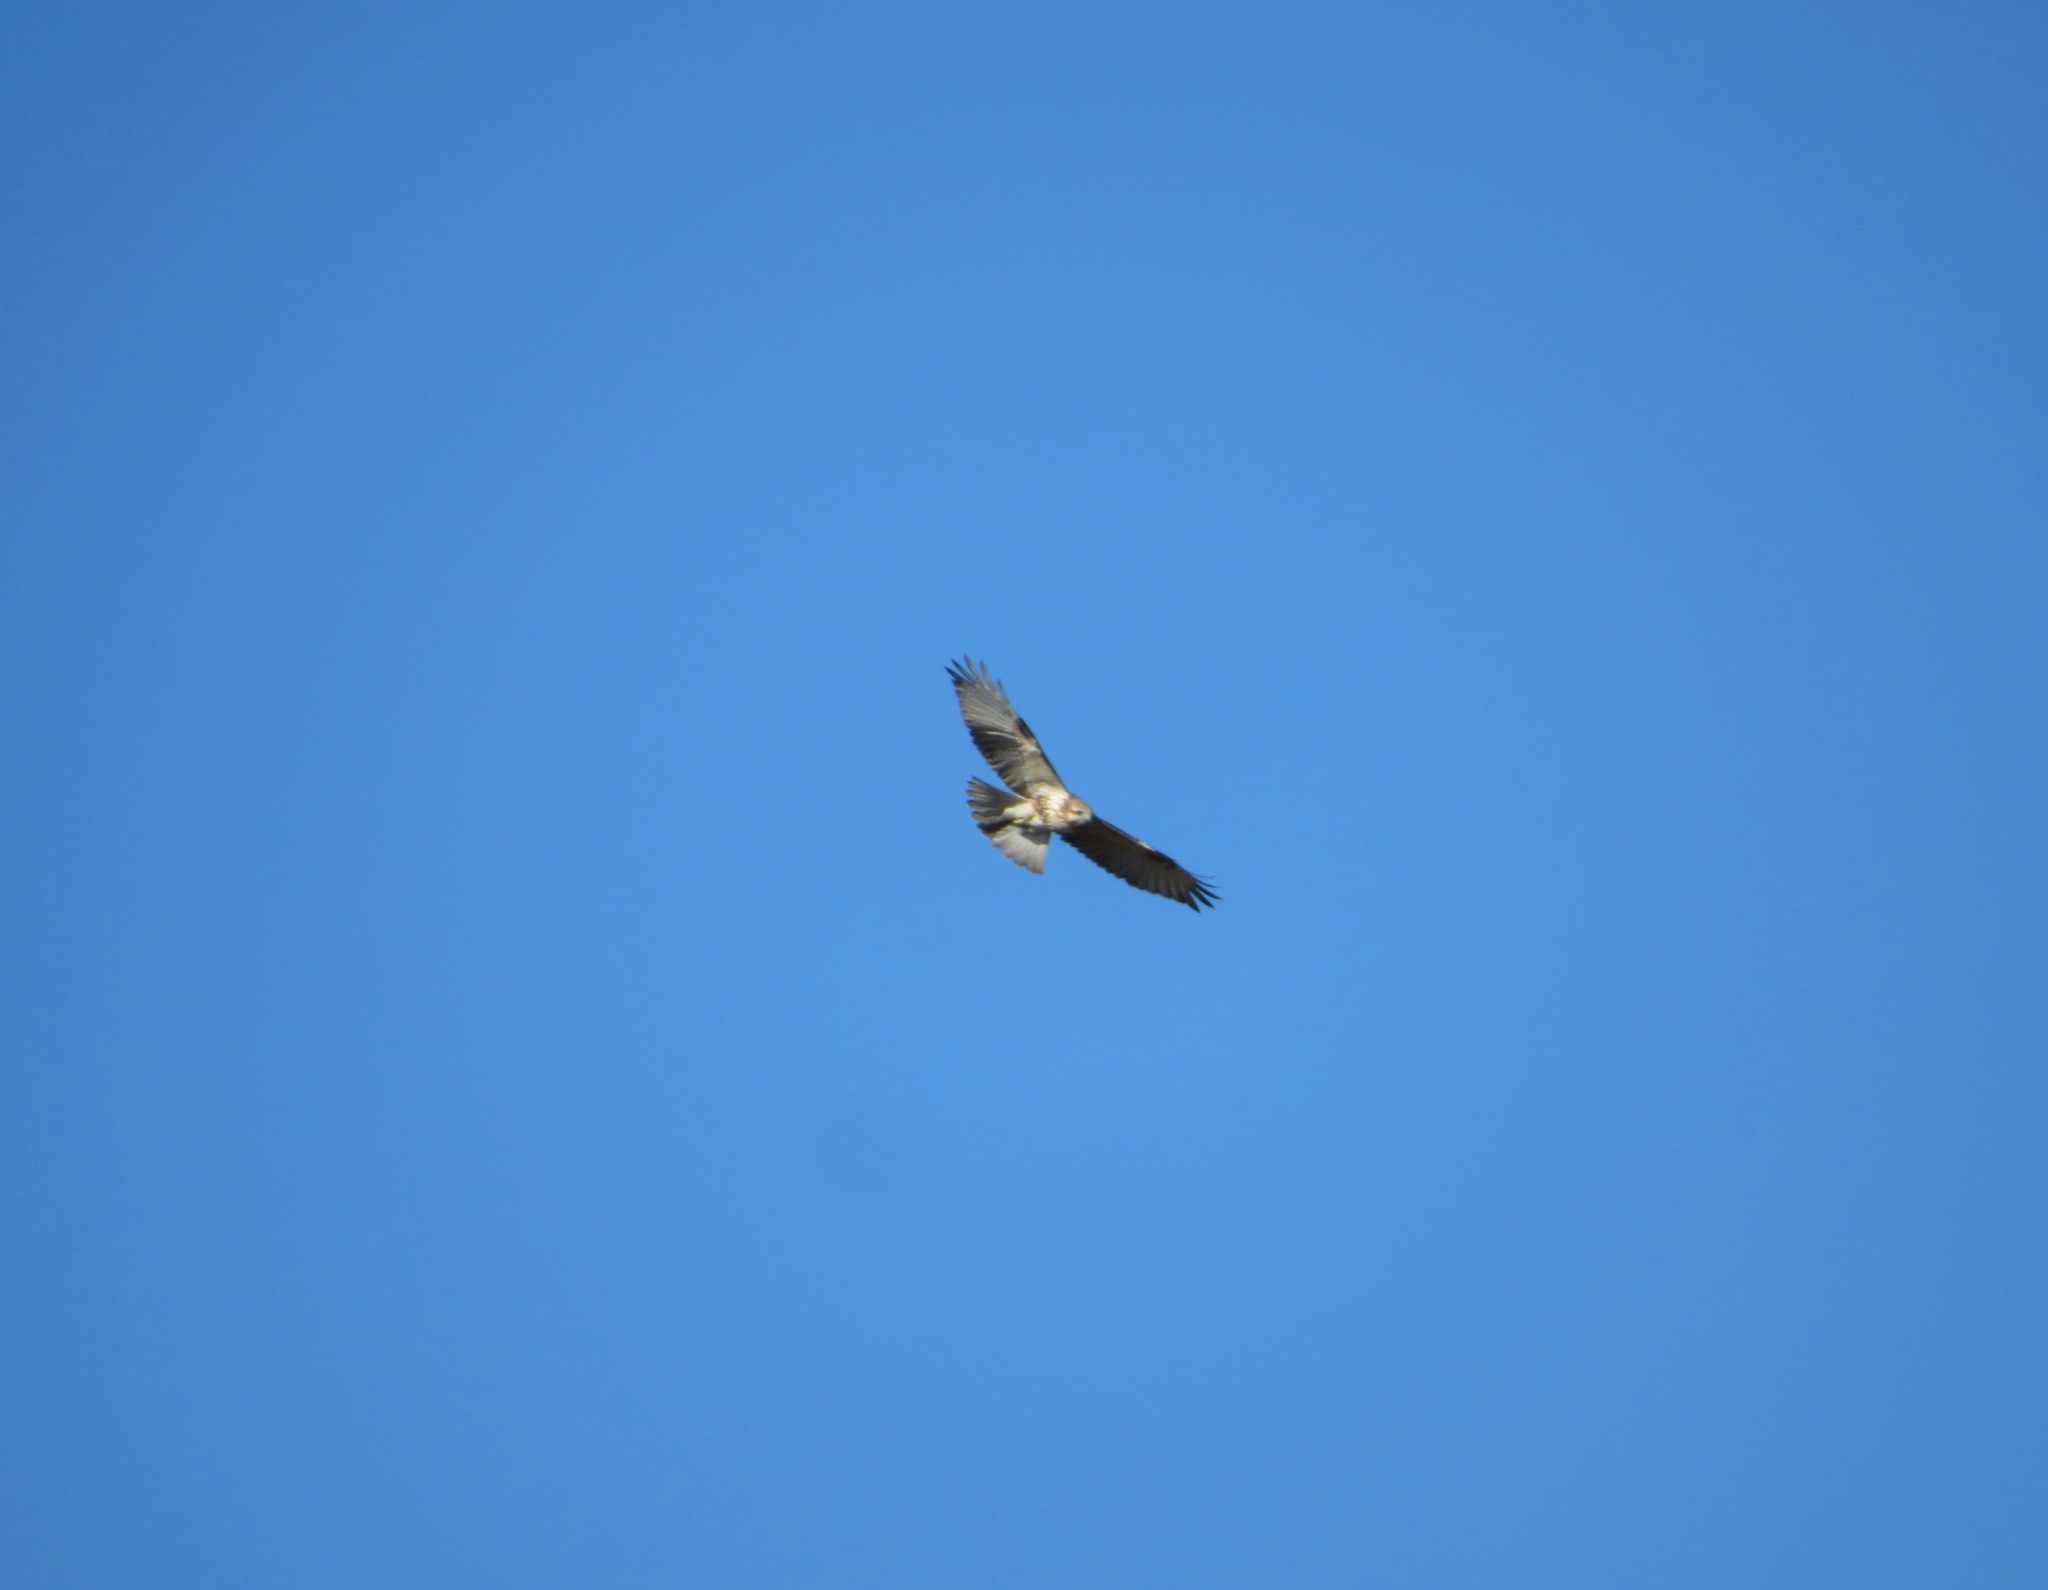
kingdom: Animalia
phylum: Chordata
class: Aves
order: Accipitriformes
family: Accipitridae
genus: Buteo
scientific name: Buteo japonicus
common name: Eastern buzzard
